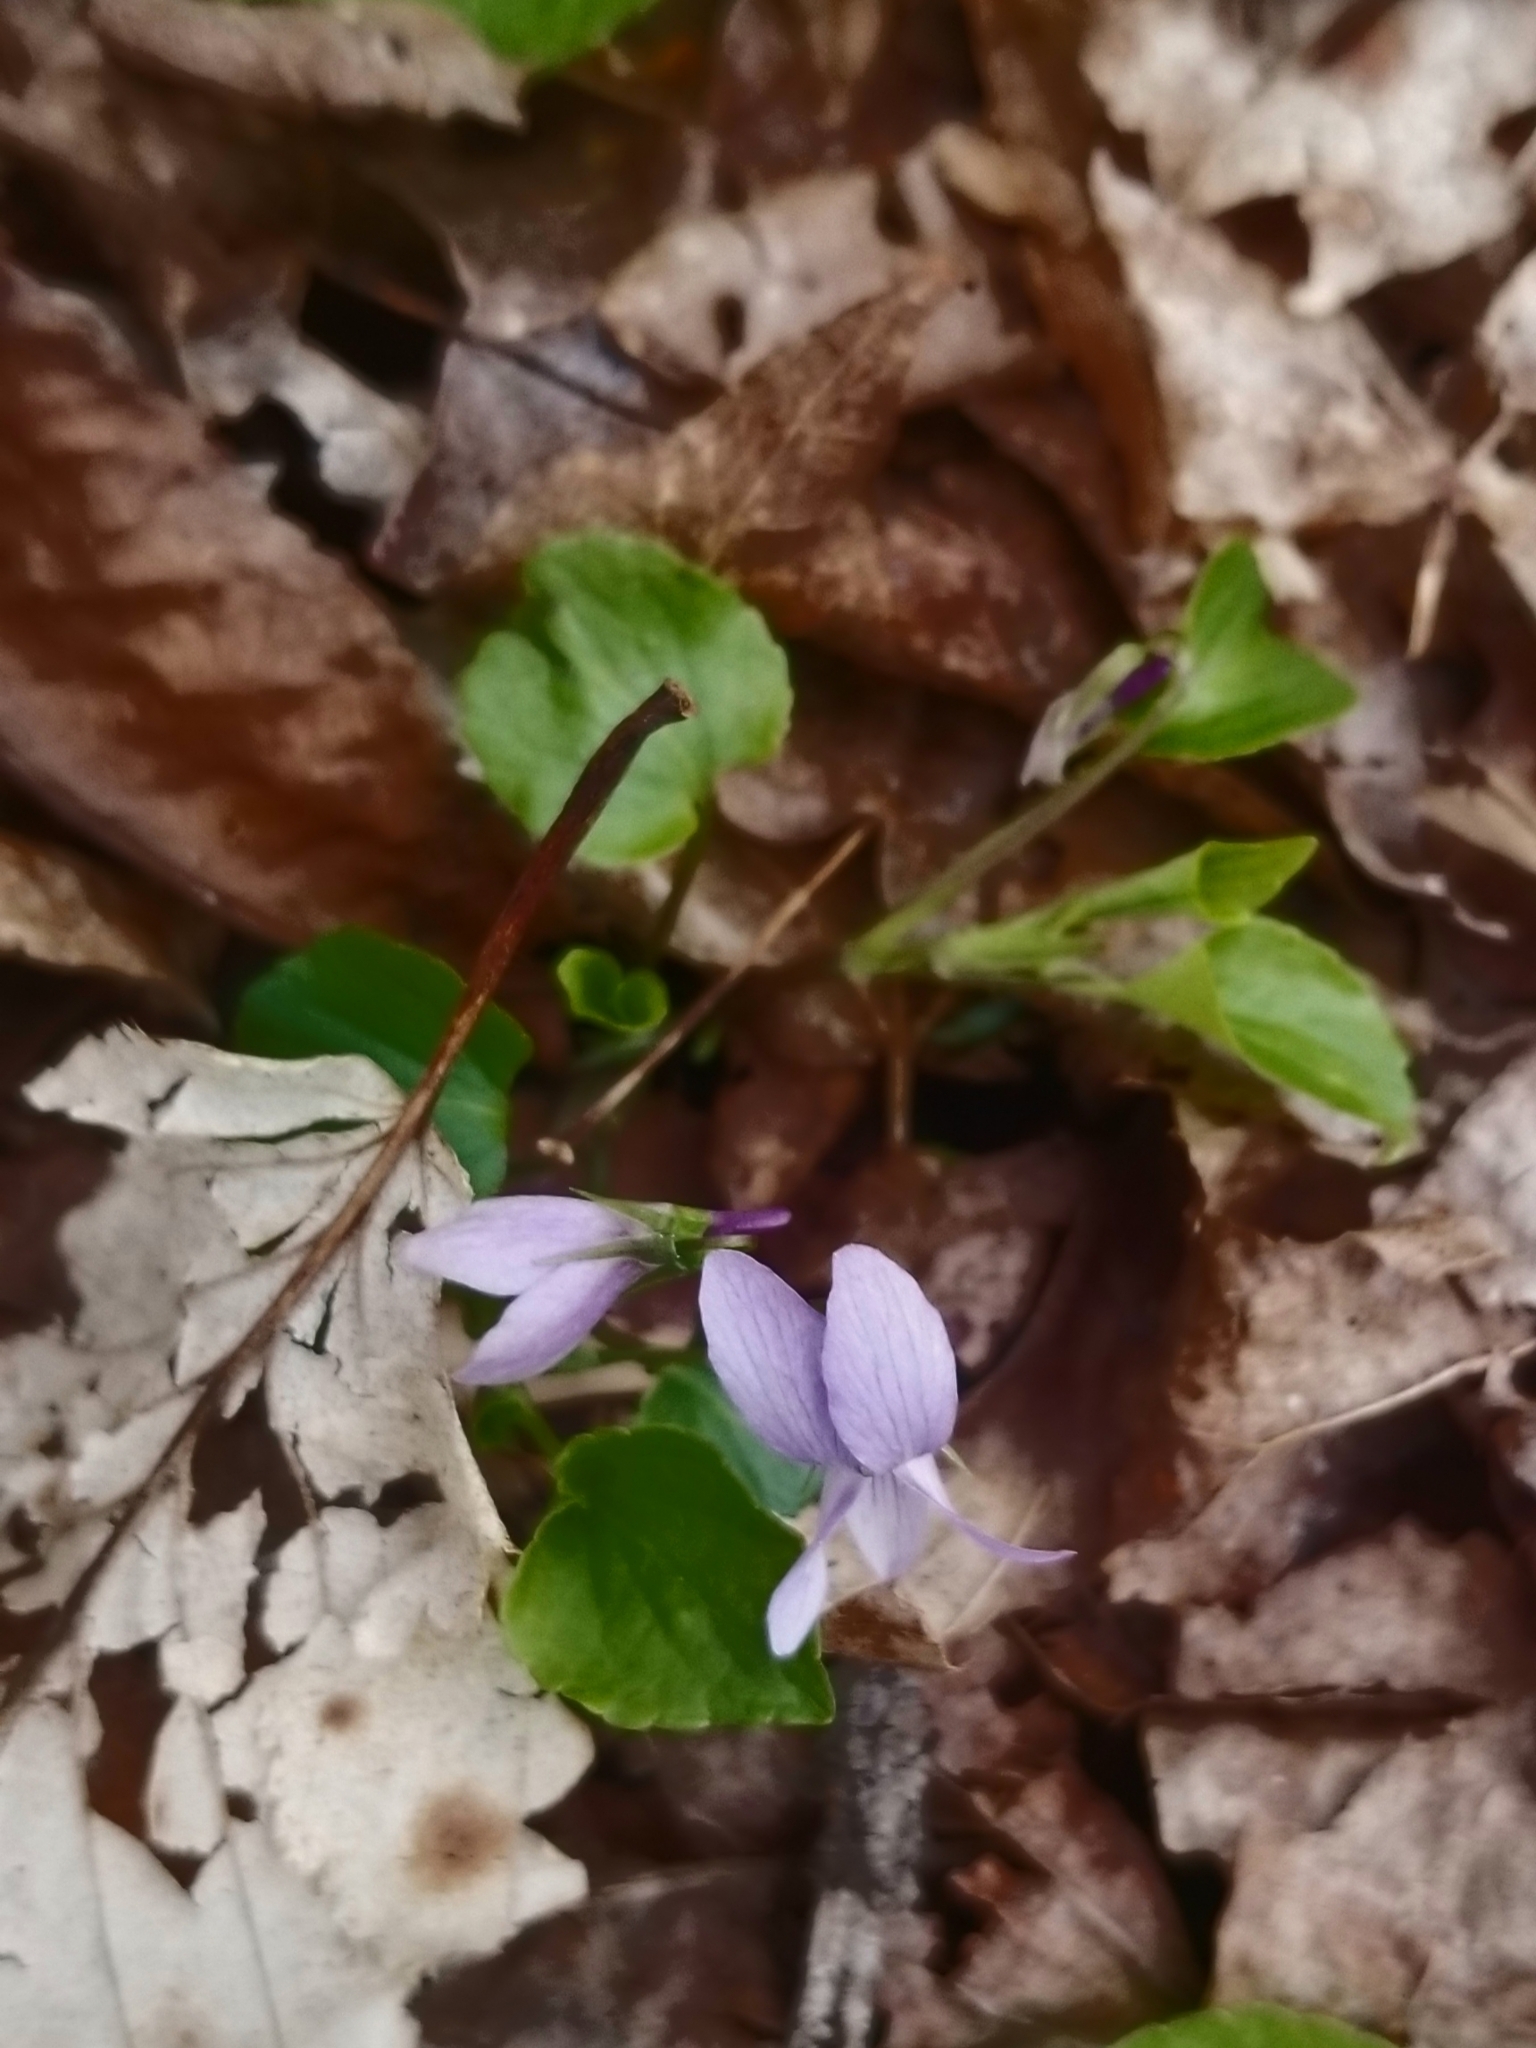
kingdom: Plantae
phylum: Tracheophyta
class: Magnoliopsida
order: Malpighiales
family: Violaceae
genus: Viola
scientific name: Viola labradorica
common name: Labrador violet
